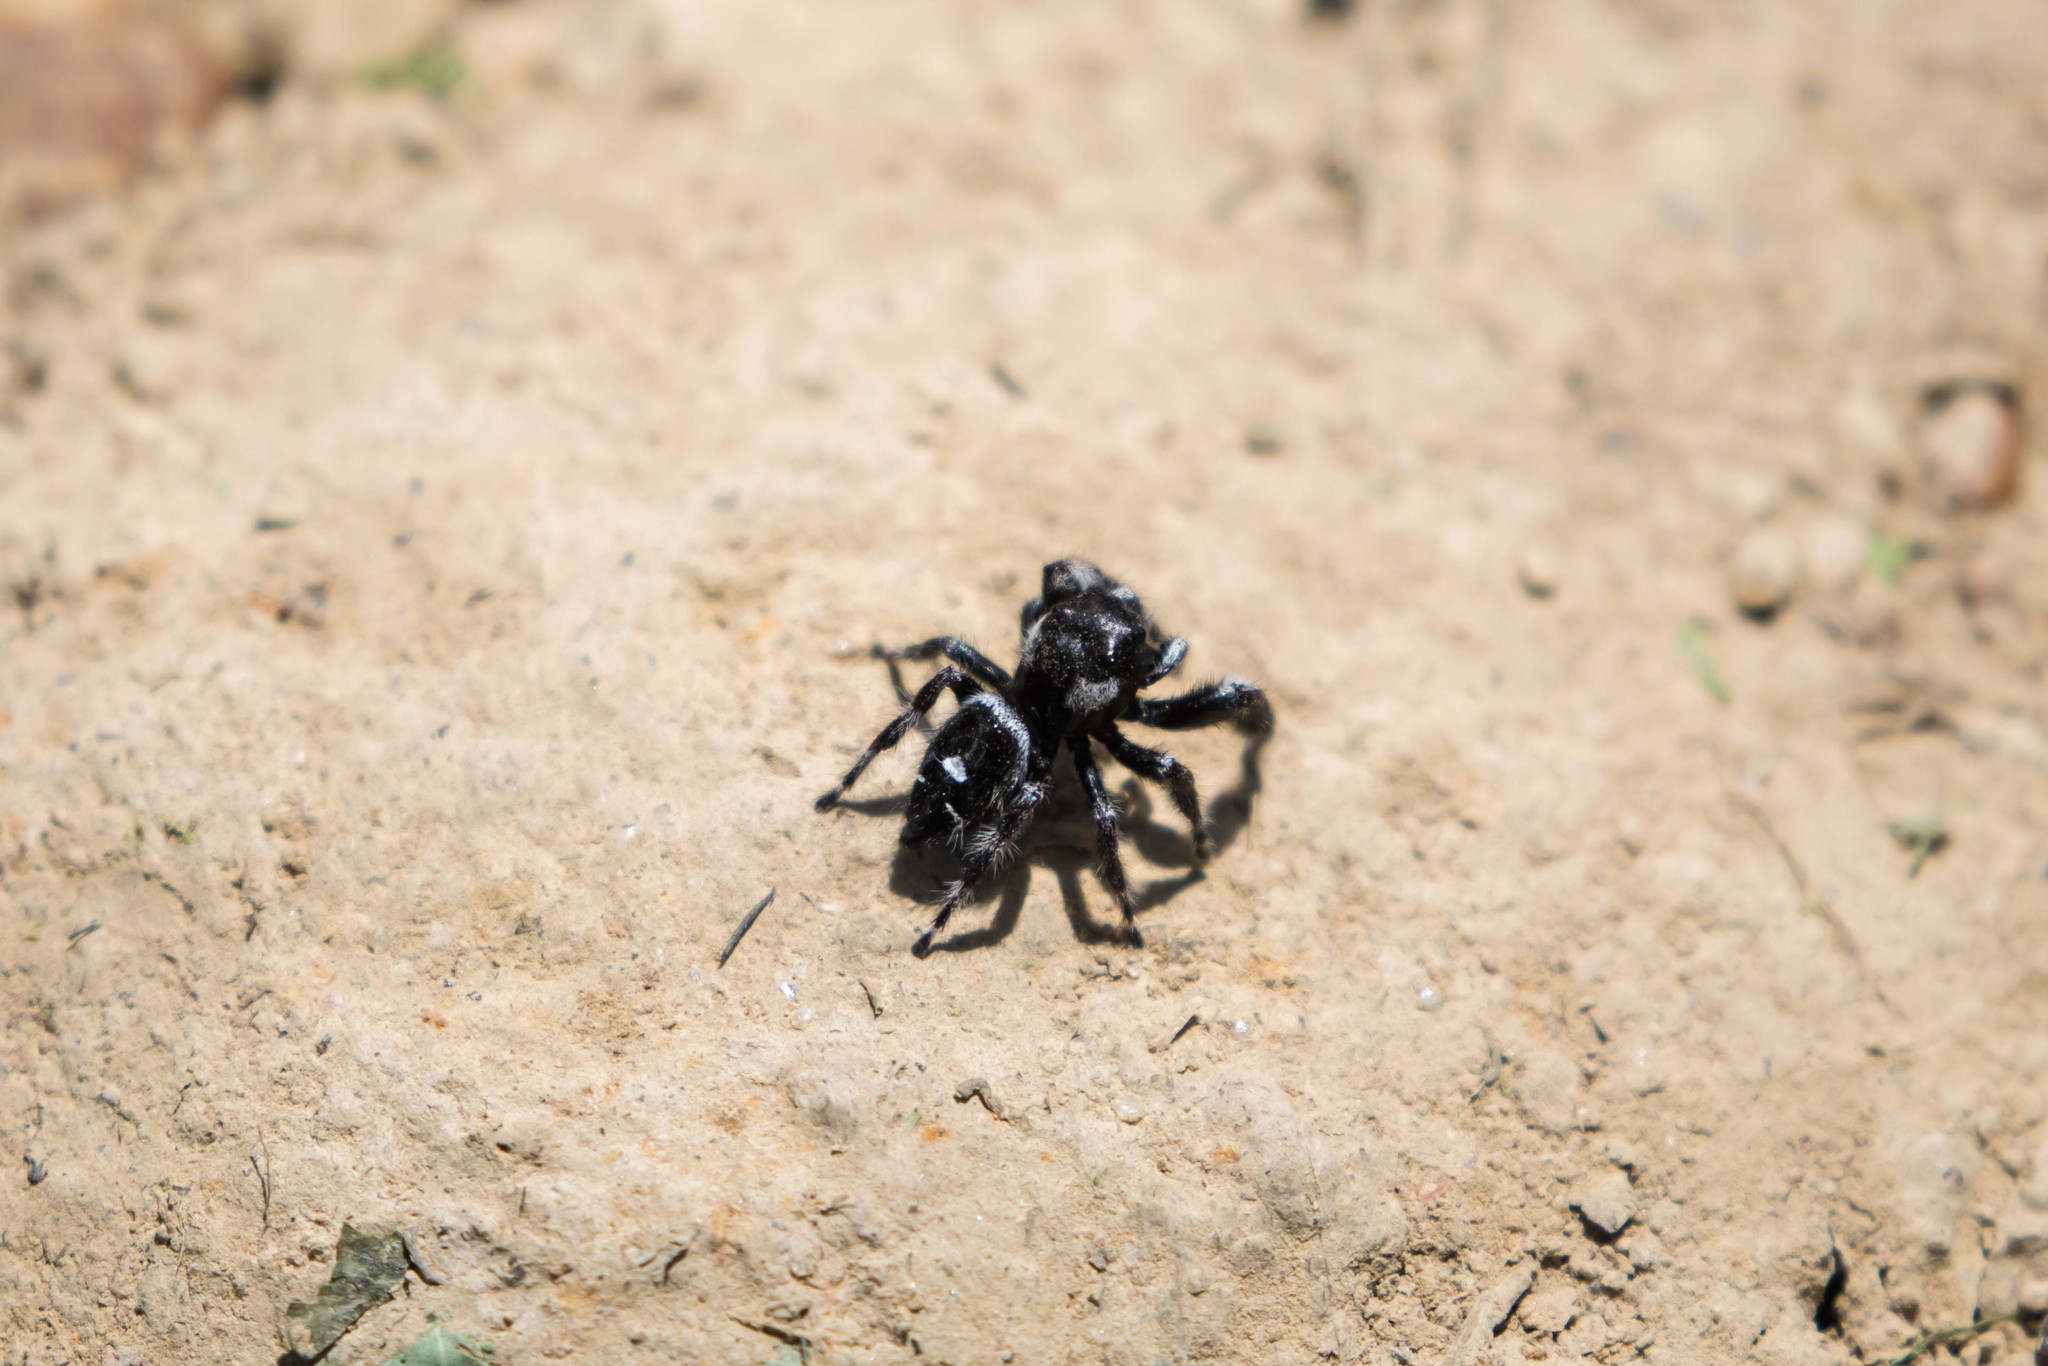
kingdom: Animalia
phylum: Arthropoda
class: Arachnida
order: Araneae
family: Salticidae
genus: Phidippus
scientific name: Phidippus audax
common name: Bold jumper
